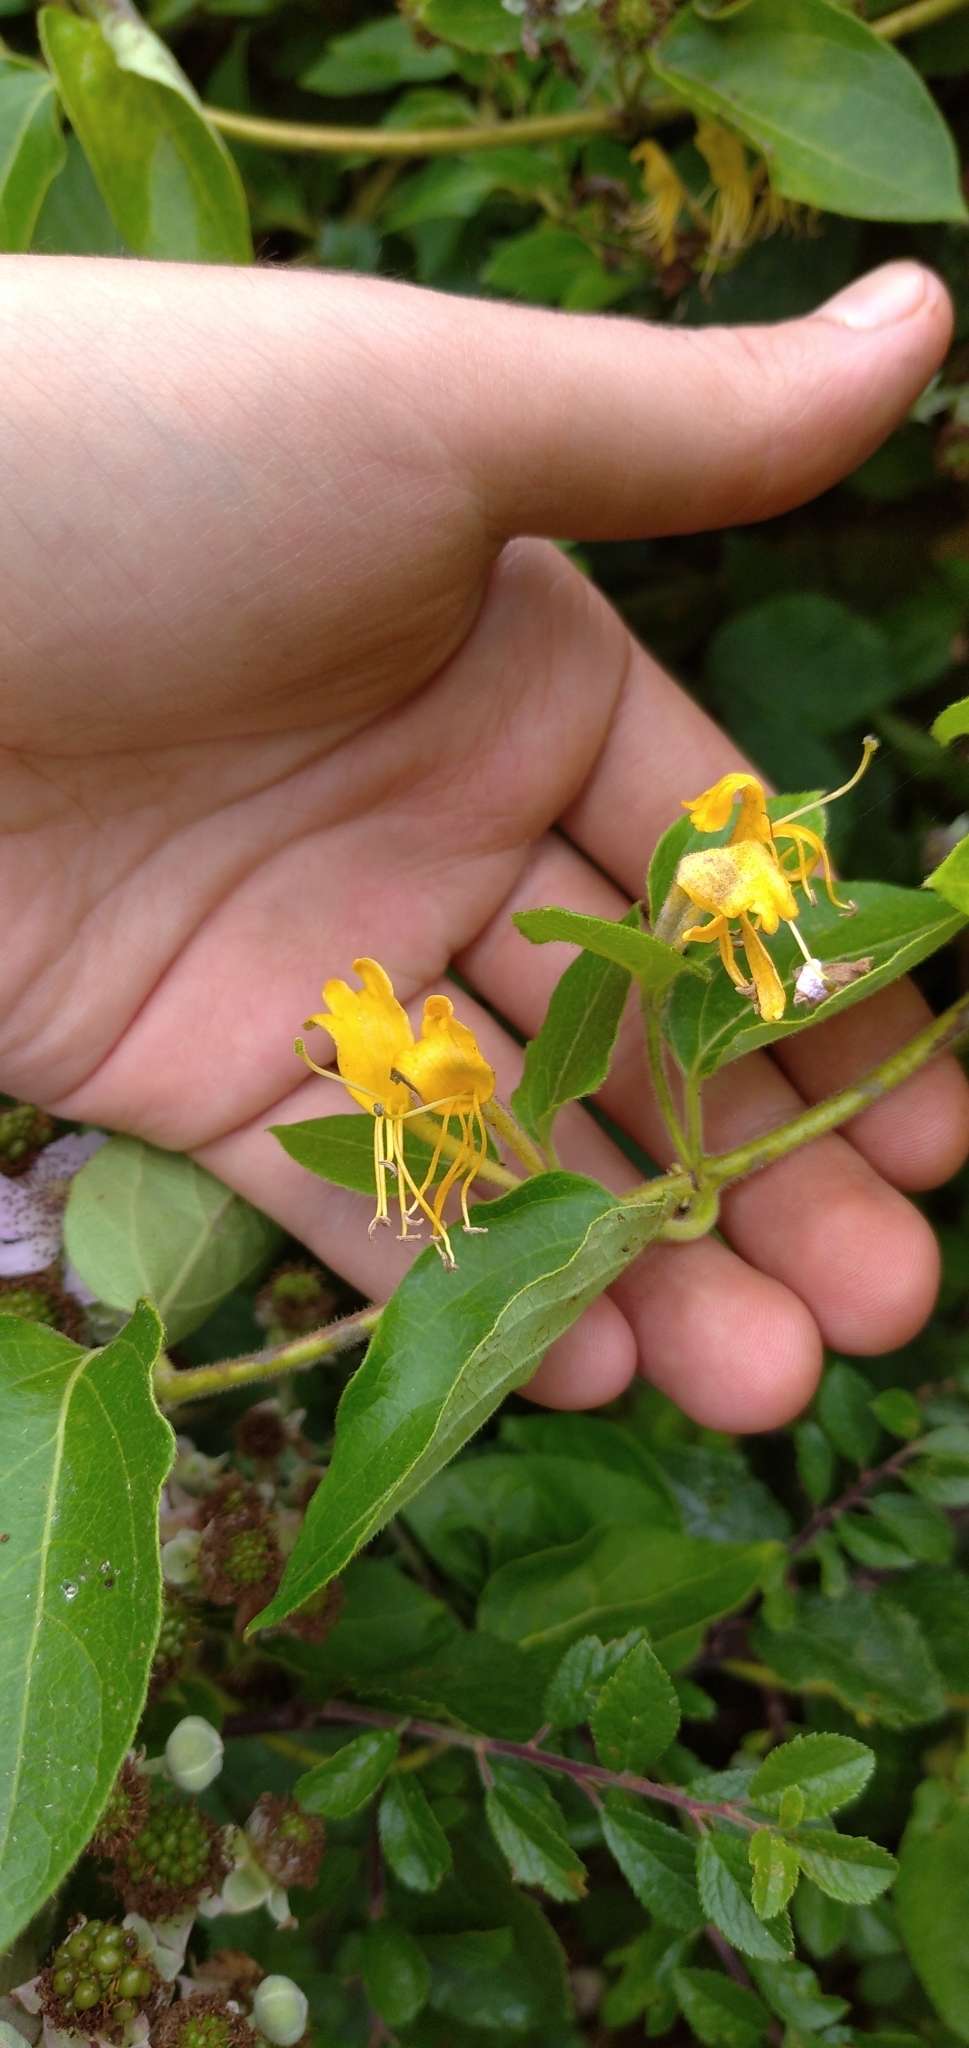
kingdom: Plantae
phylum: Tracheophyta
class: Magnoliopsida
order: Dipsacales
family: Caprifoliaceae
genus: Lonicera
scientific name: Lonicera japonica
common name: Japanese honeysuckle
